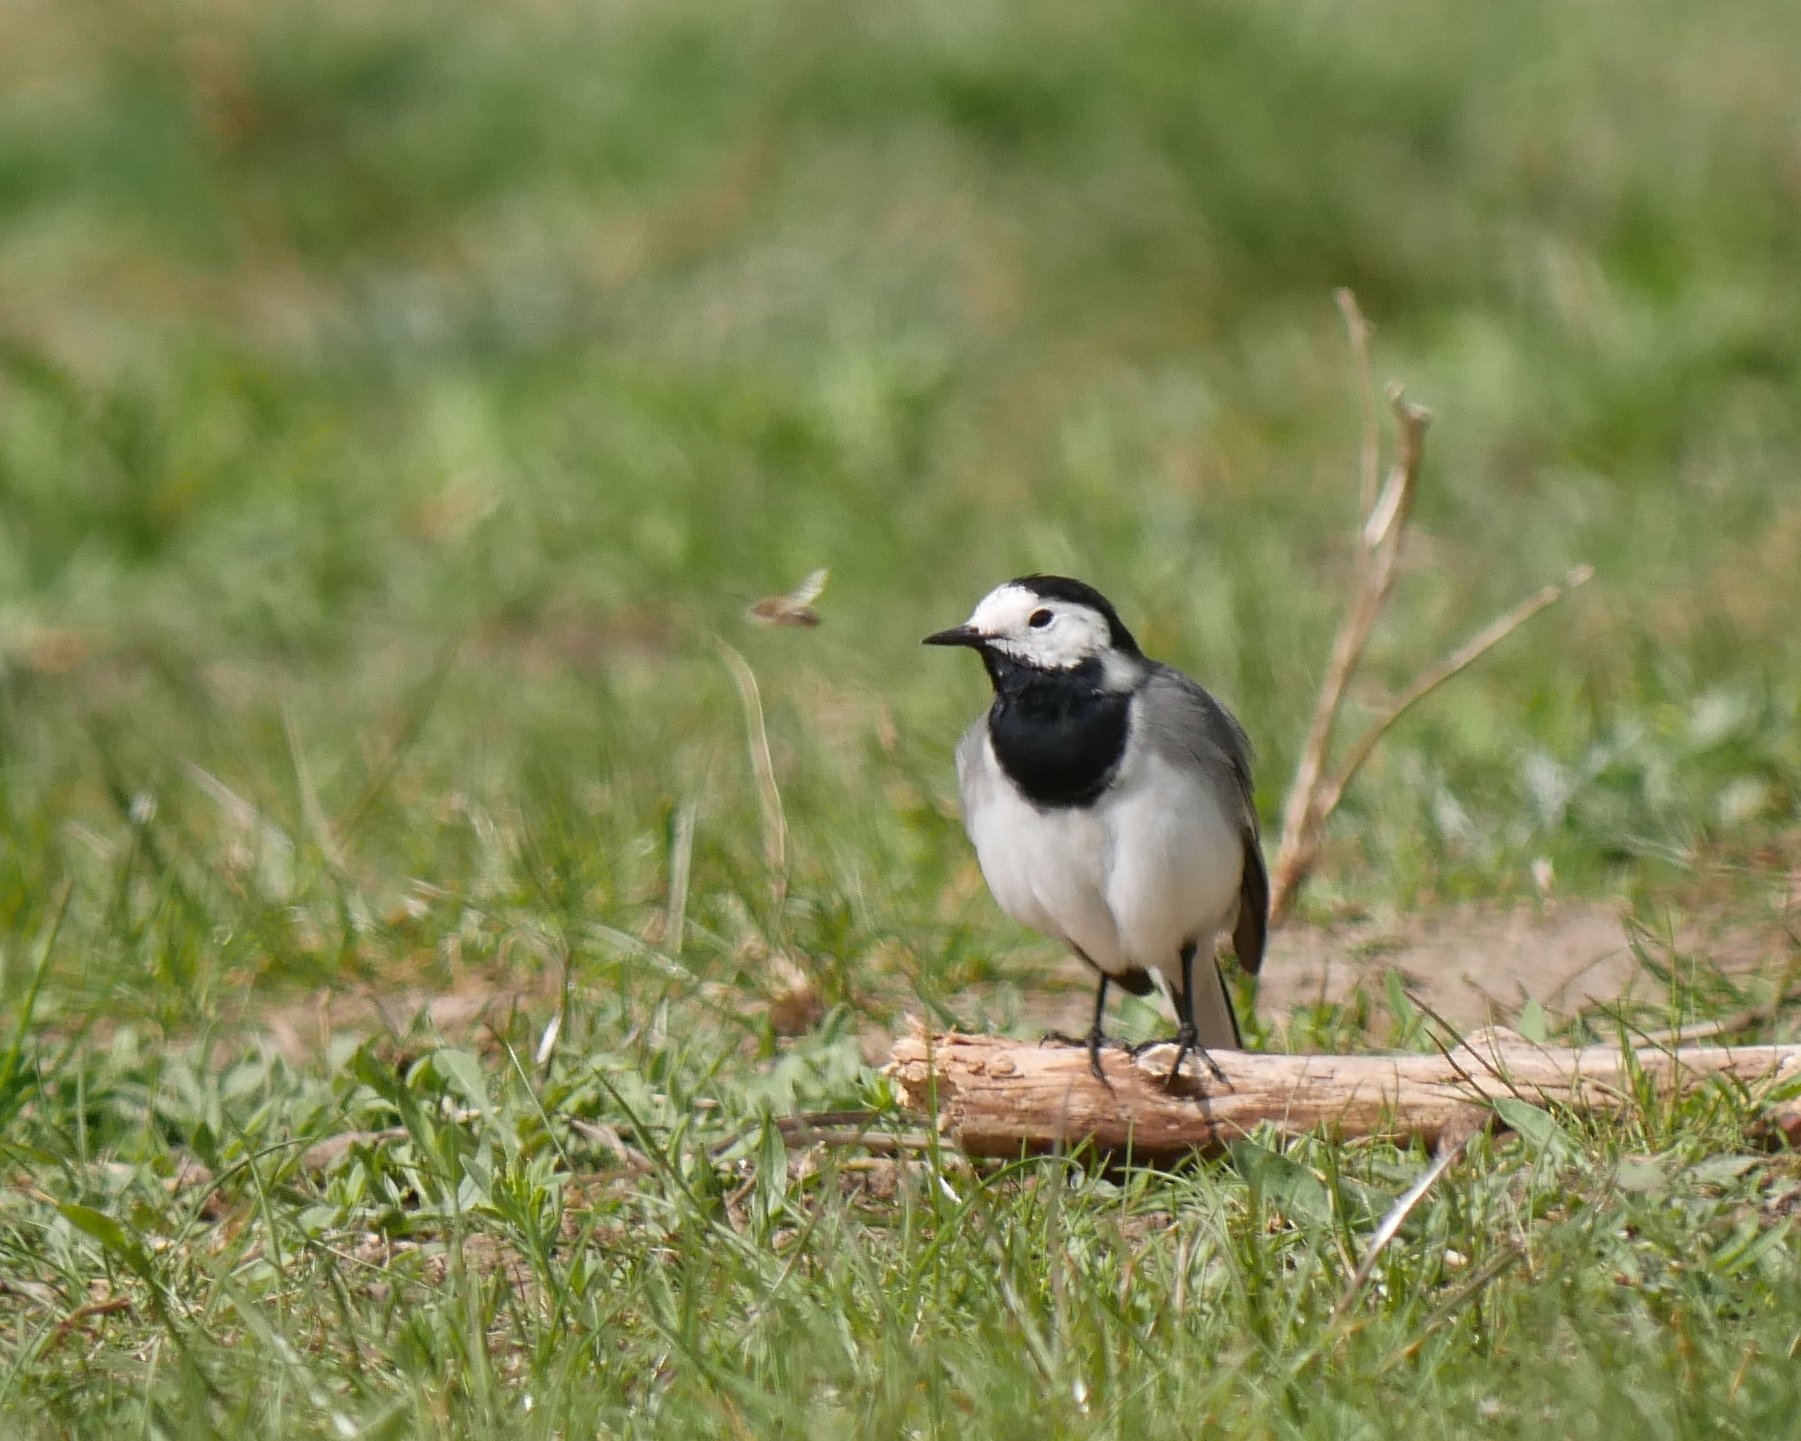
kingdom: Animalia
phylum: Chordata
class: Aves
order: Passeriformes
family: Motacillidae
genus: Motacilla
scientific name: Motacilla alba
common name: White wagtail
